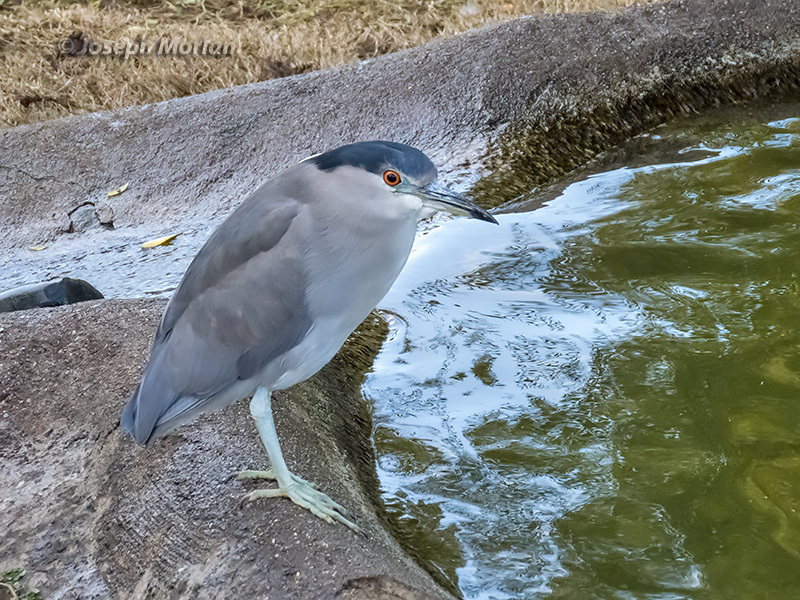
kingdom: Animalia
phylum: Chordata
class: Aves
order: Pelecaniformes
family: Ardeidae
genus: Nycticorax
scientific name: Nycticorax nycticorax
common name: Black-crowned night heron
